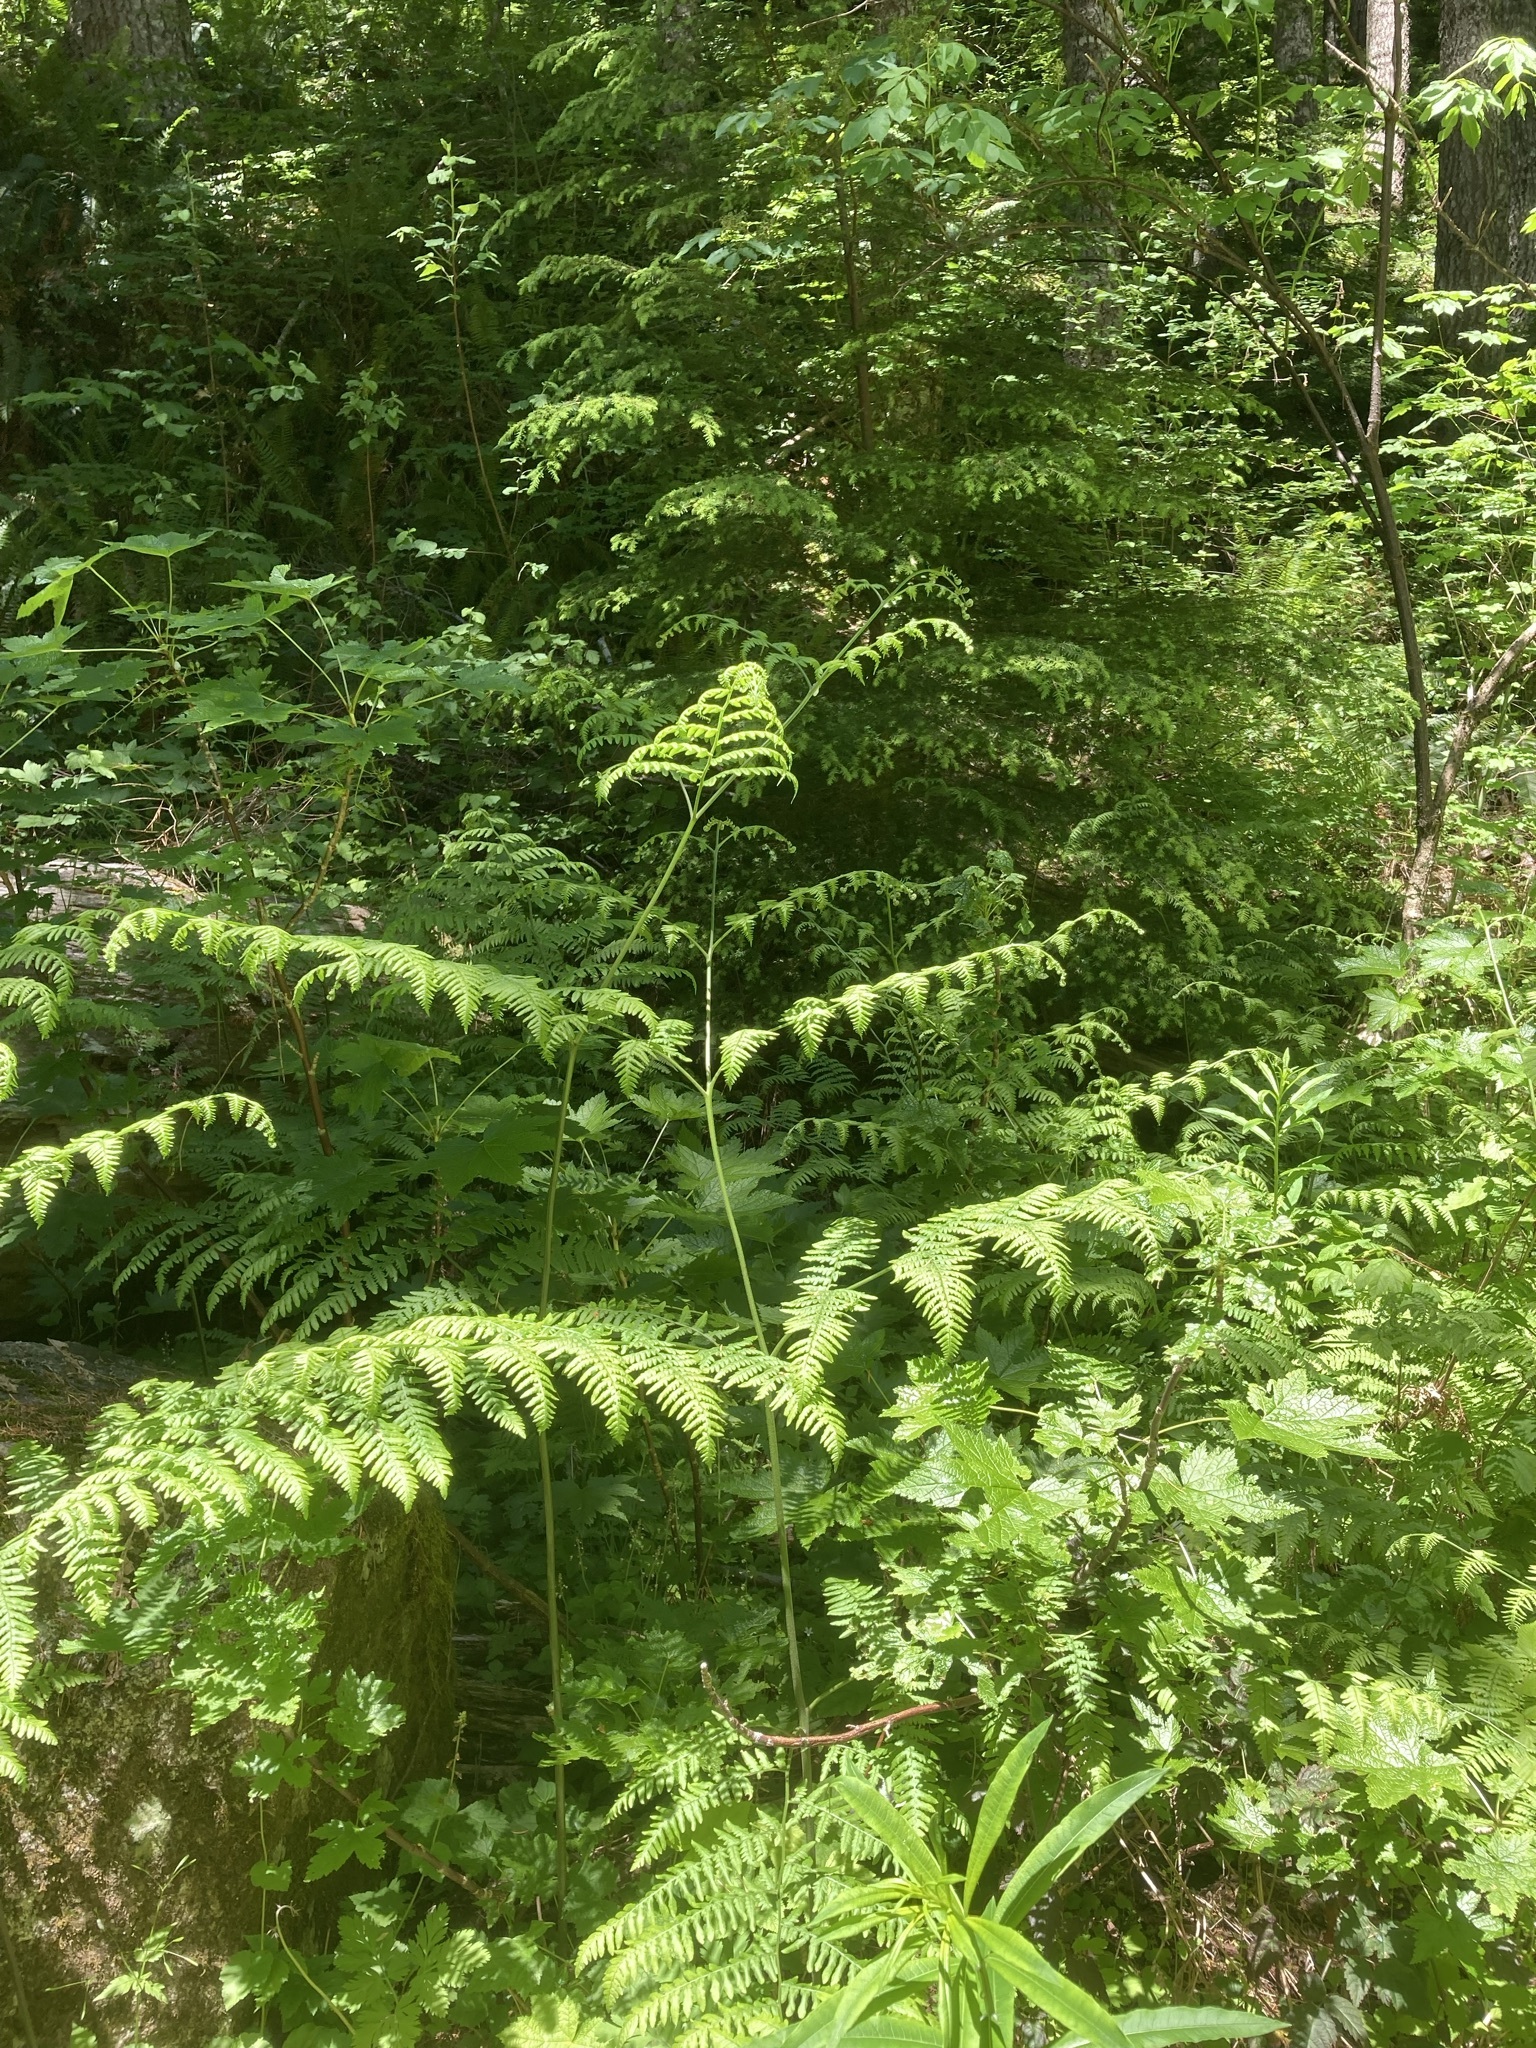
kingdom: Plantae
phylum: Tracheophyta
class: Polypodiopsida
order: Polypodiales
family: Dennstaedtiaceae
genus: Pteridium
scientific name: Pteridium aquilinum
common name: Bracken
